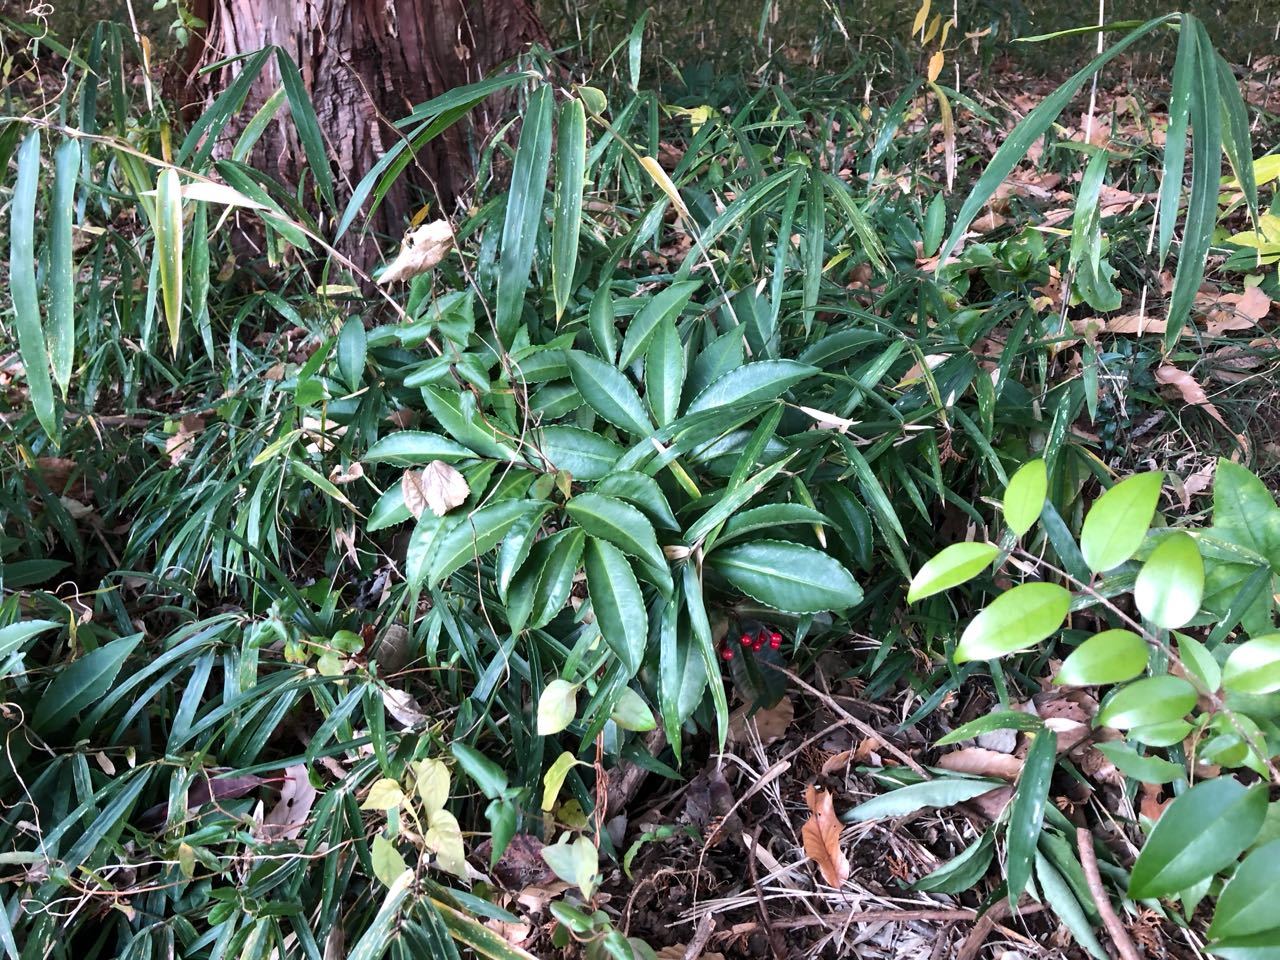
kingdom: Plantae
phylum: Tracheophyta
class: Magnoliopsida
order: Ericales
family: Primulaceae
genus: Ardisia
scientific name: Ardisia crenata
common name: Hen's eyes
